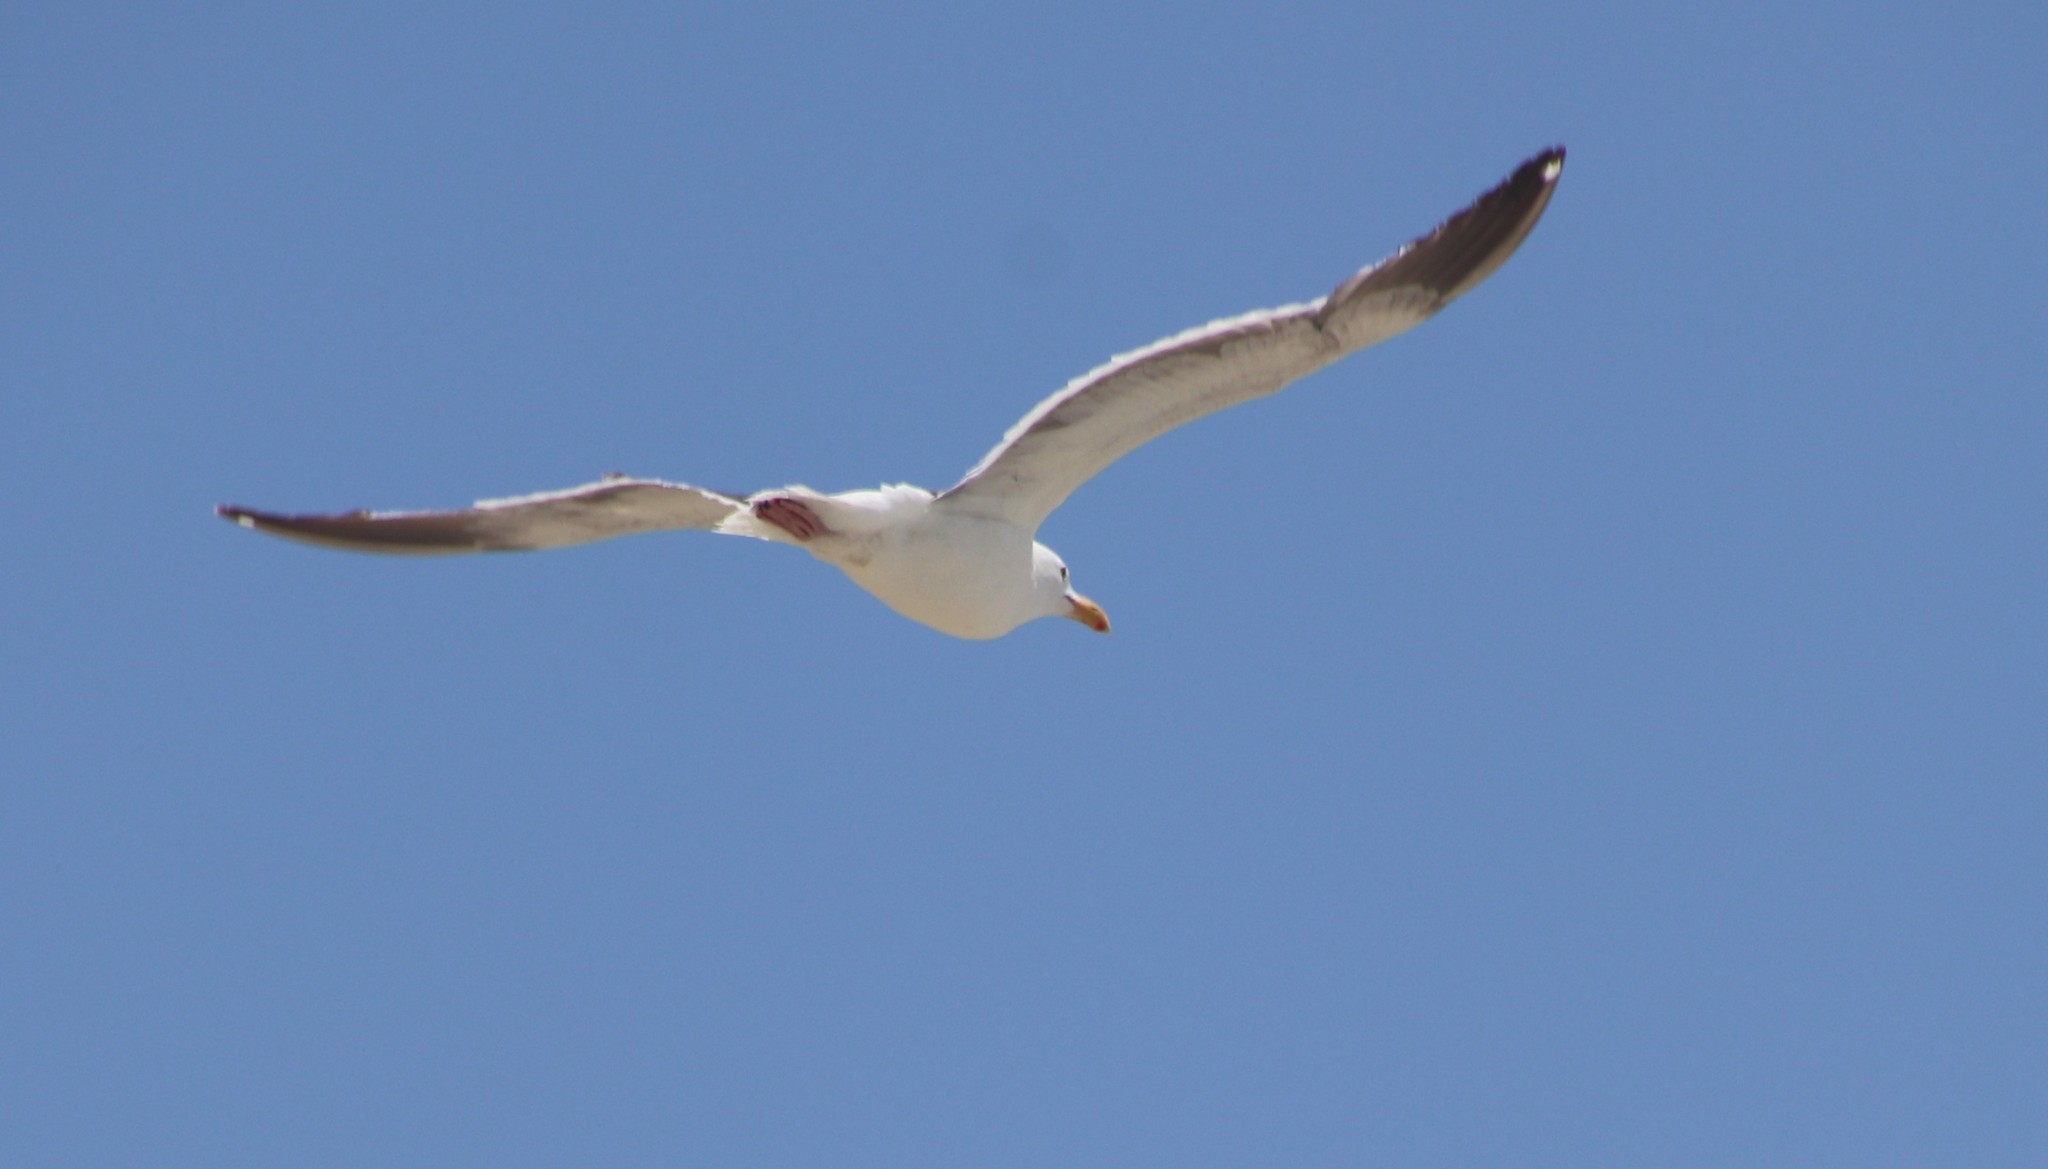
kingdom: Animalia
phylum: Chordata
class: Aves
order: Charadriiformes
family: Laridae
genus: Larus
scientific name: Larus occidentalis
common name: Western gull
